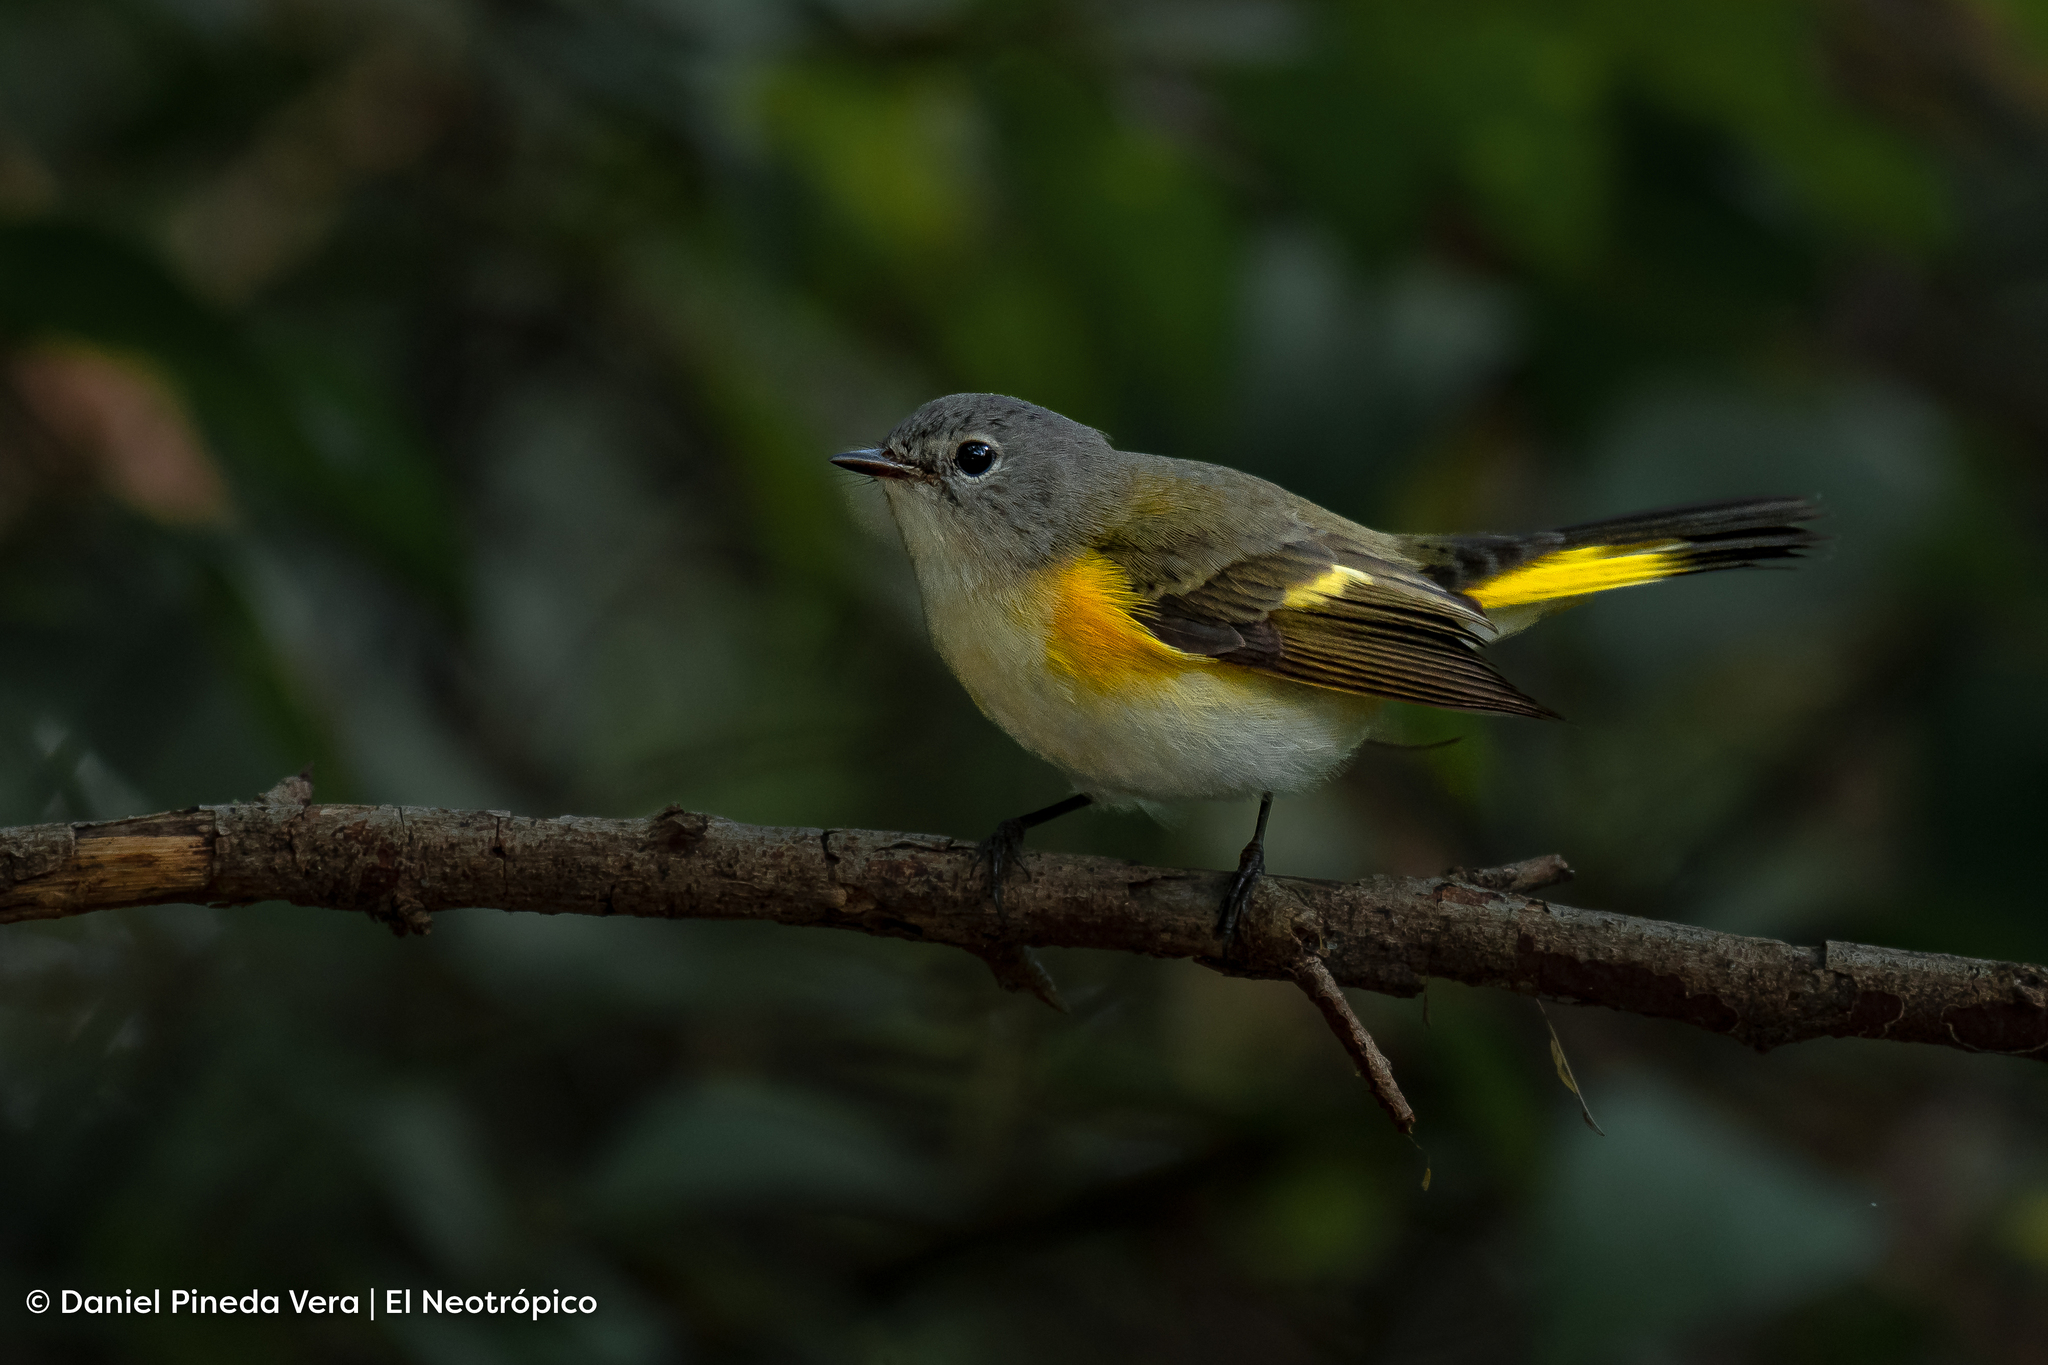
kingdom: Animalia
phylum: Chordata
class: Aves
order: Passeriformes
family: Parulidae
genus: Setophaga
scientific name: Setophaga ruticilla
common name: American redstart
